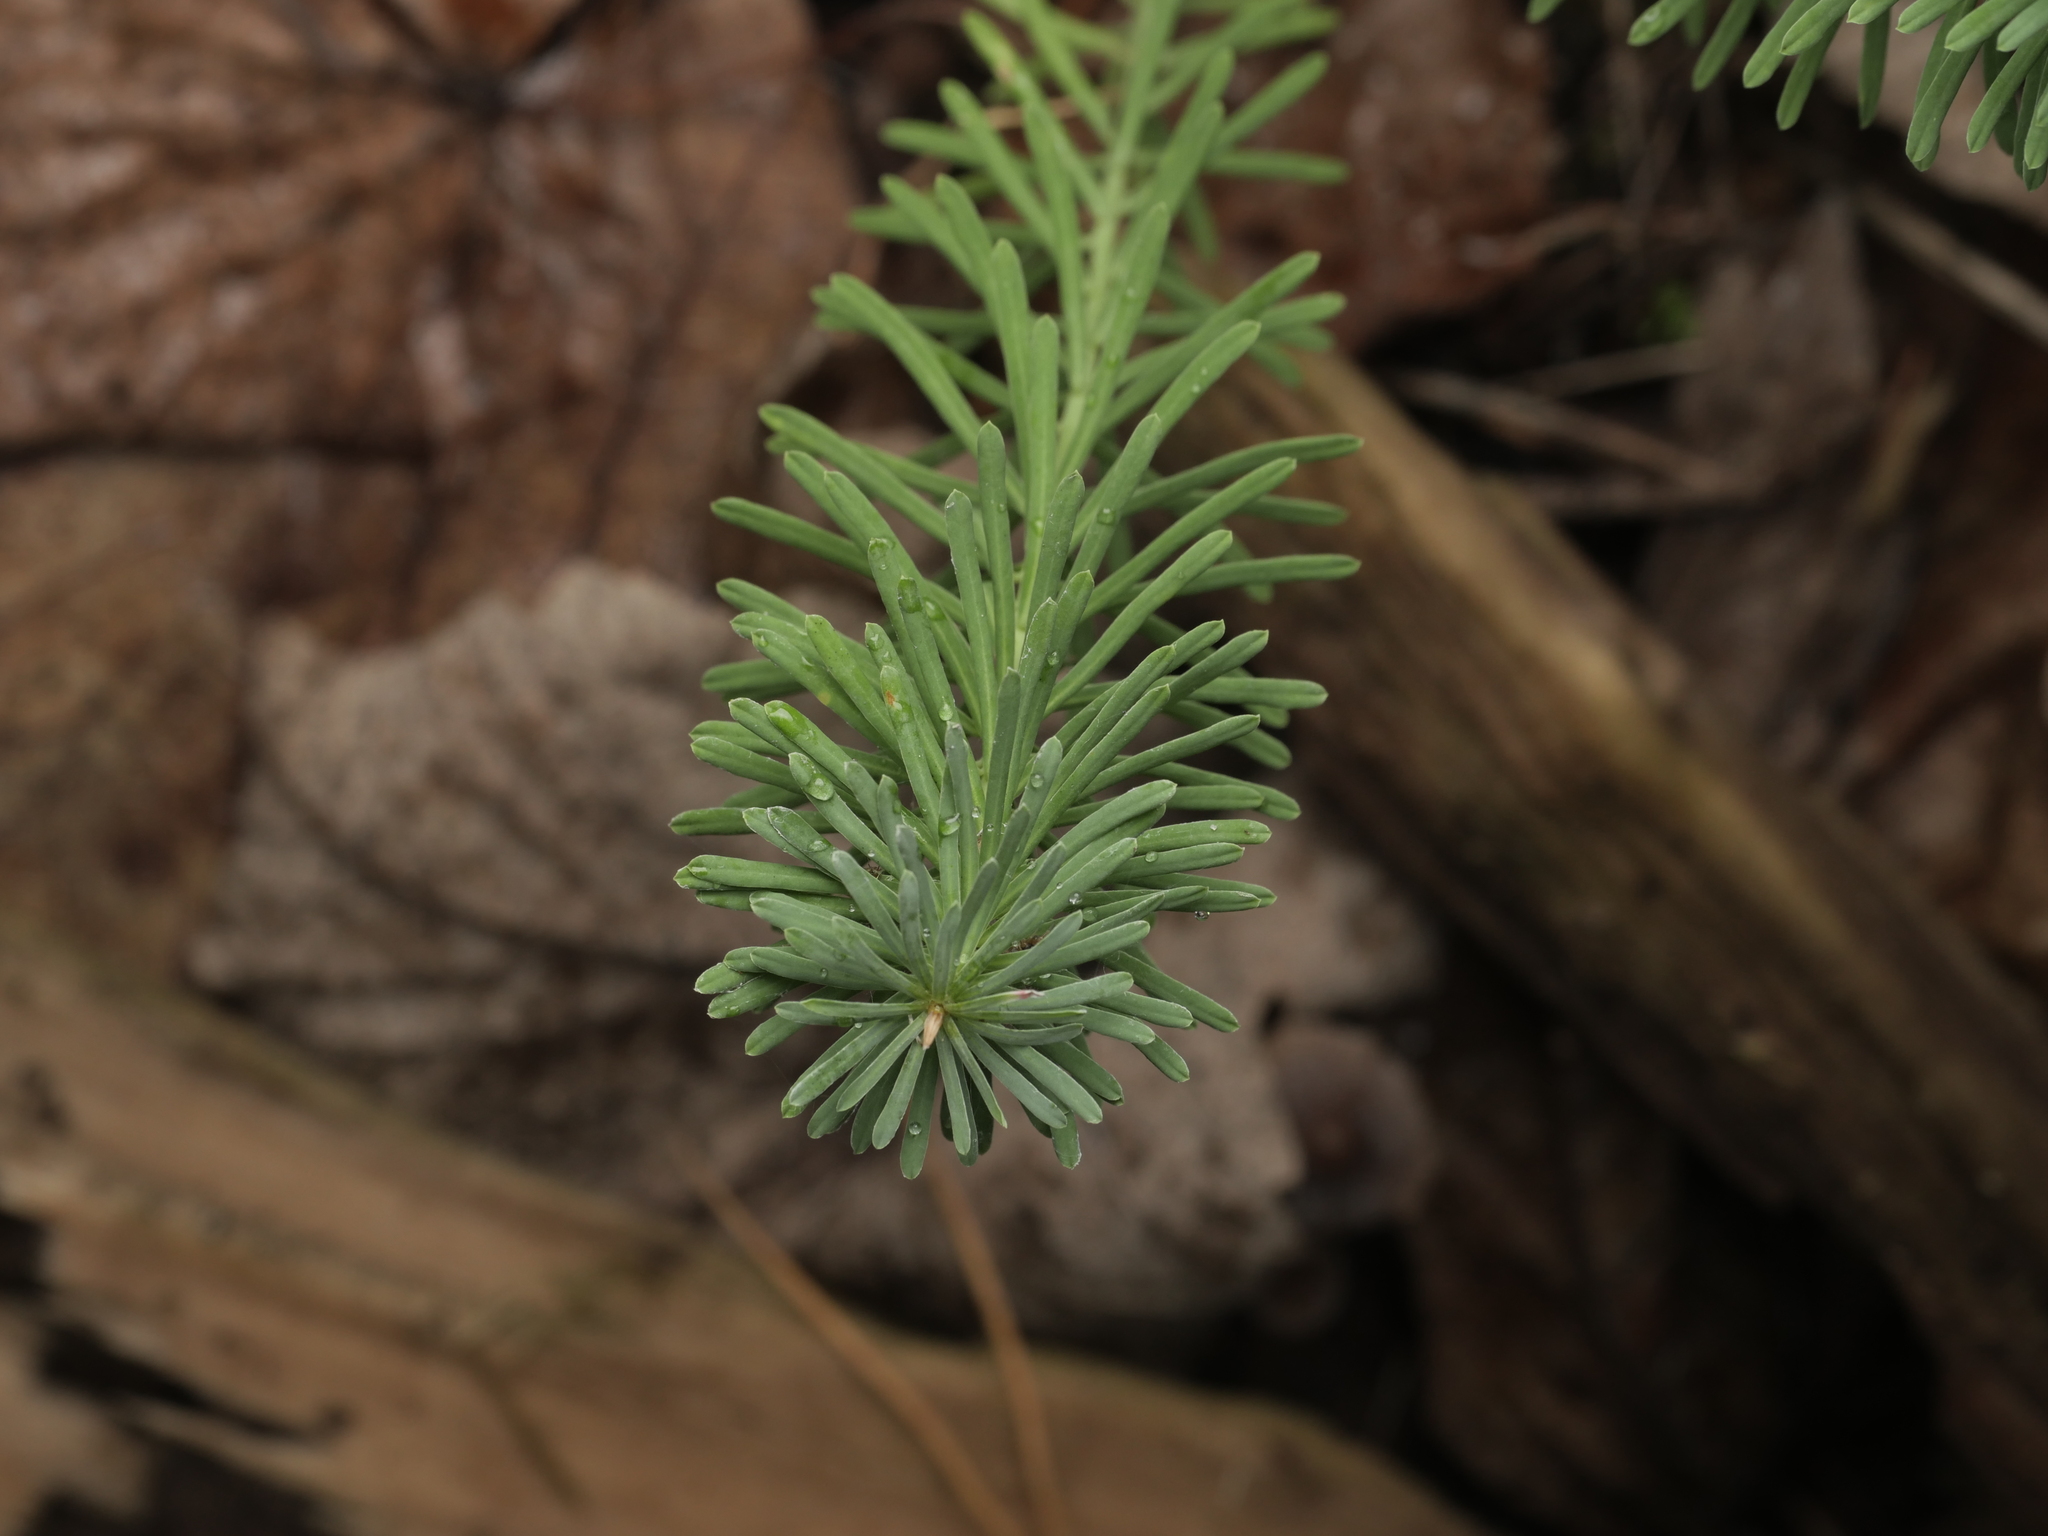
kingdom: Plantae
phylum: Tracheophyta
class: Magnoliopsida
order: Malpighiales
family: Euphorbiaceae
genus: Euphorbia
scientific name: Euphorbia cyparissias
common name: Cypress spurge
